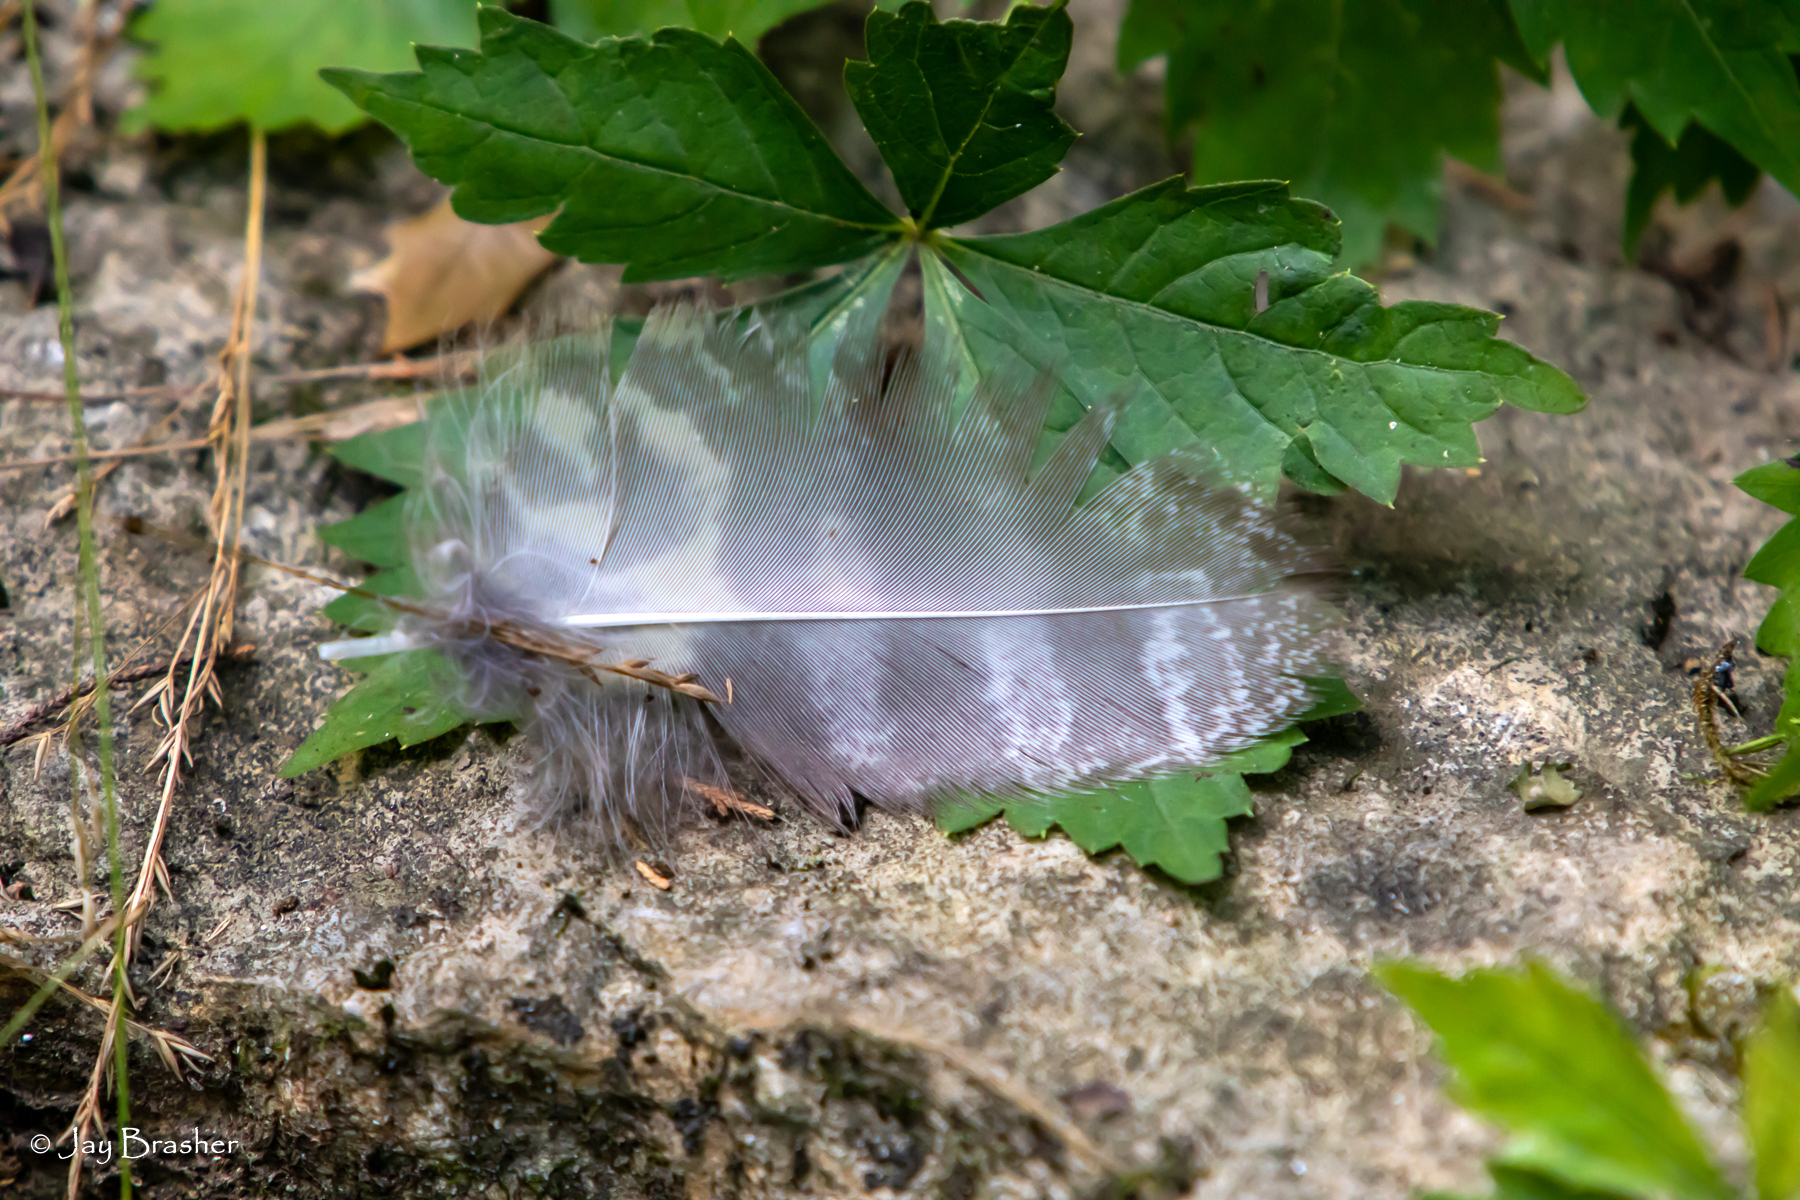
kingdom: Animalia
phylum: Chordata
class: Aves
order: Strigiformes
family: Strigidae
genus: Bubo
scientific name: Bubo virginianus
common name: Great horned owl
